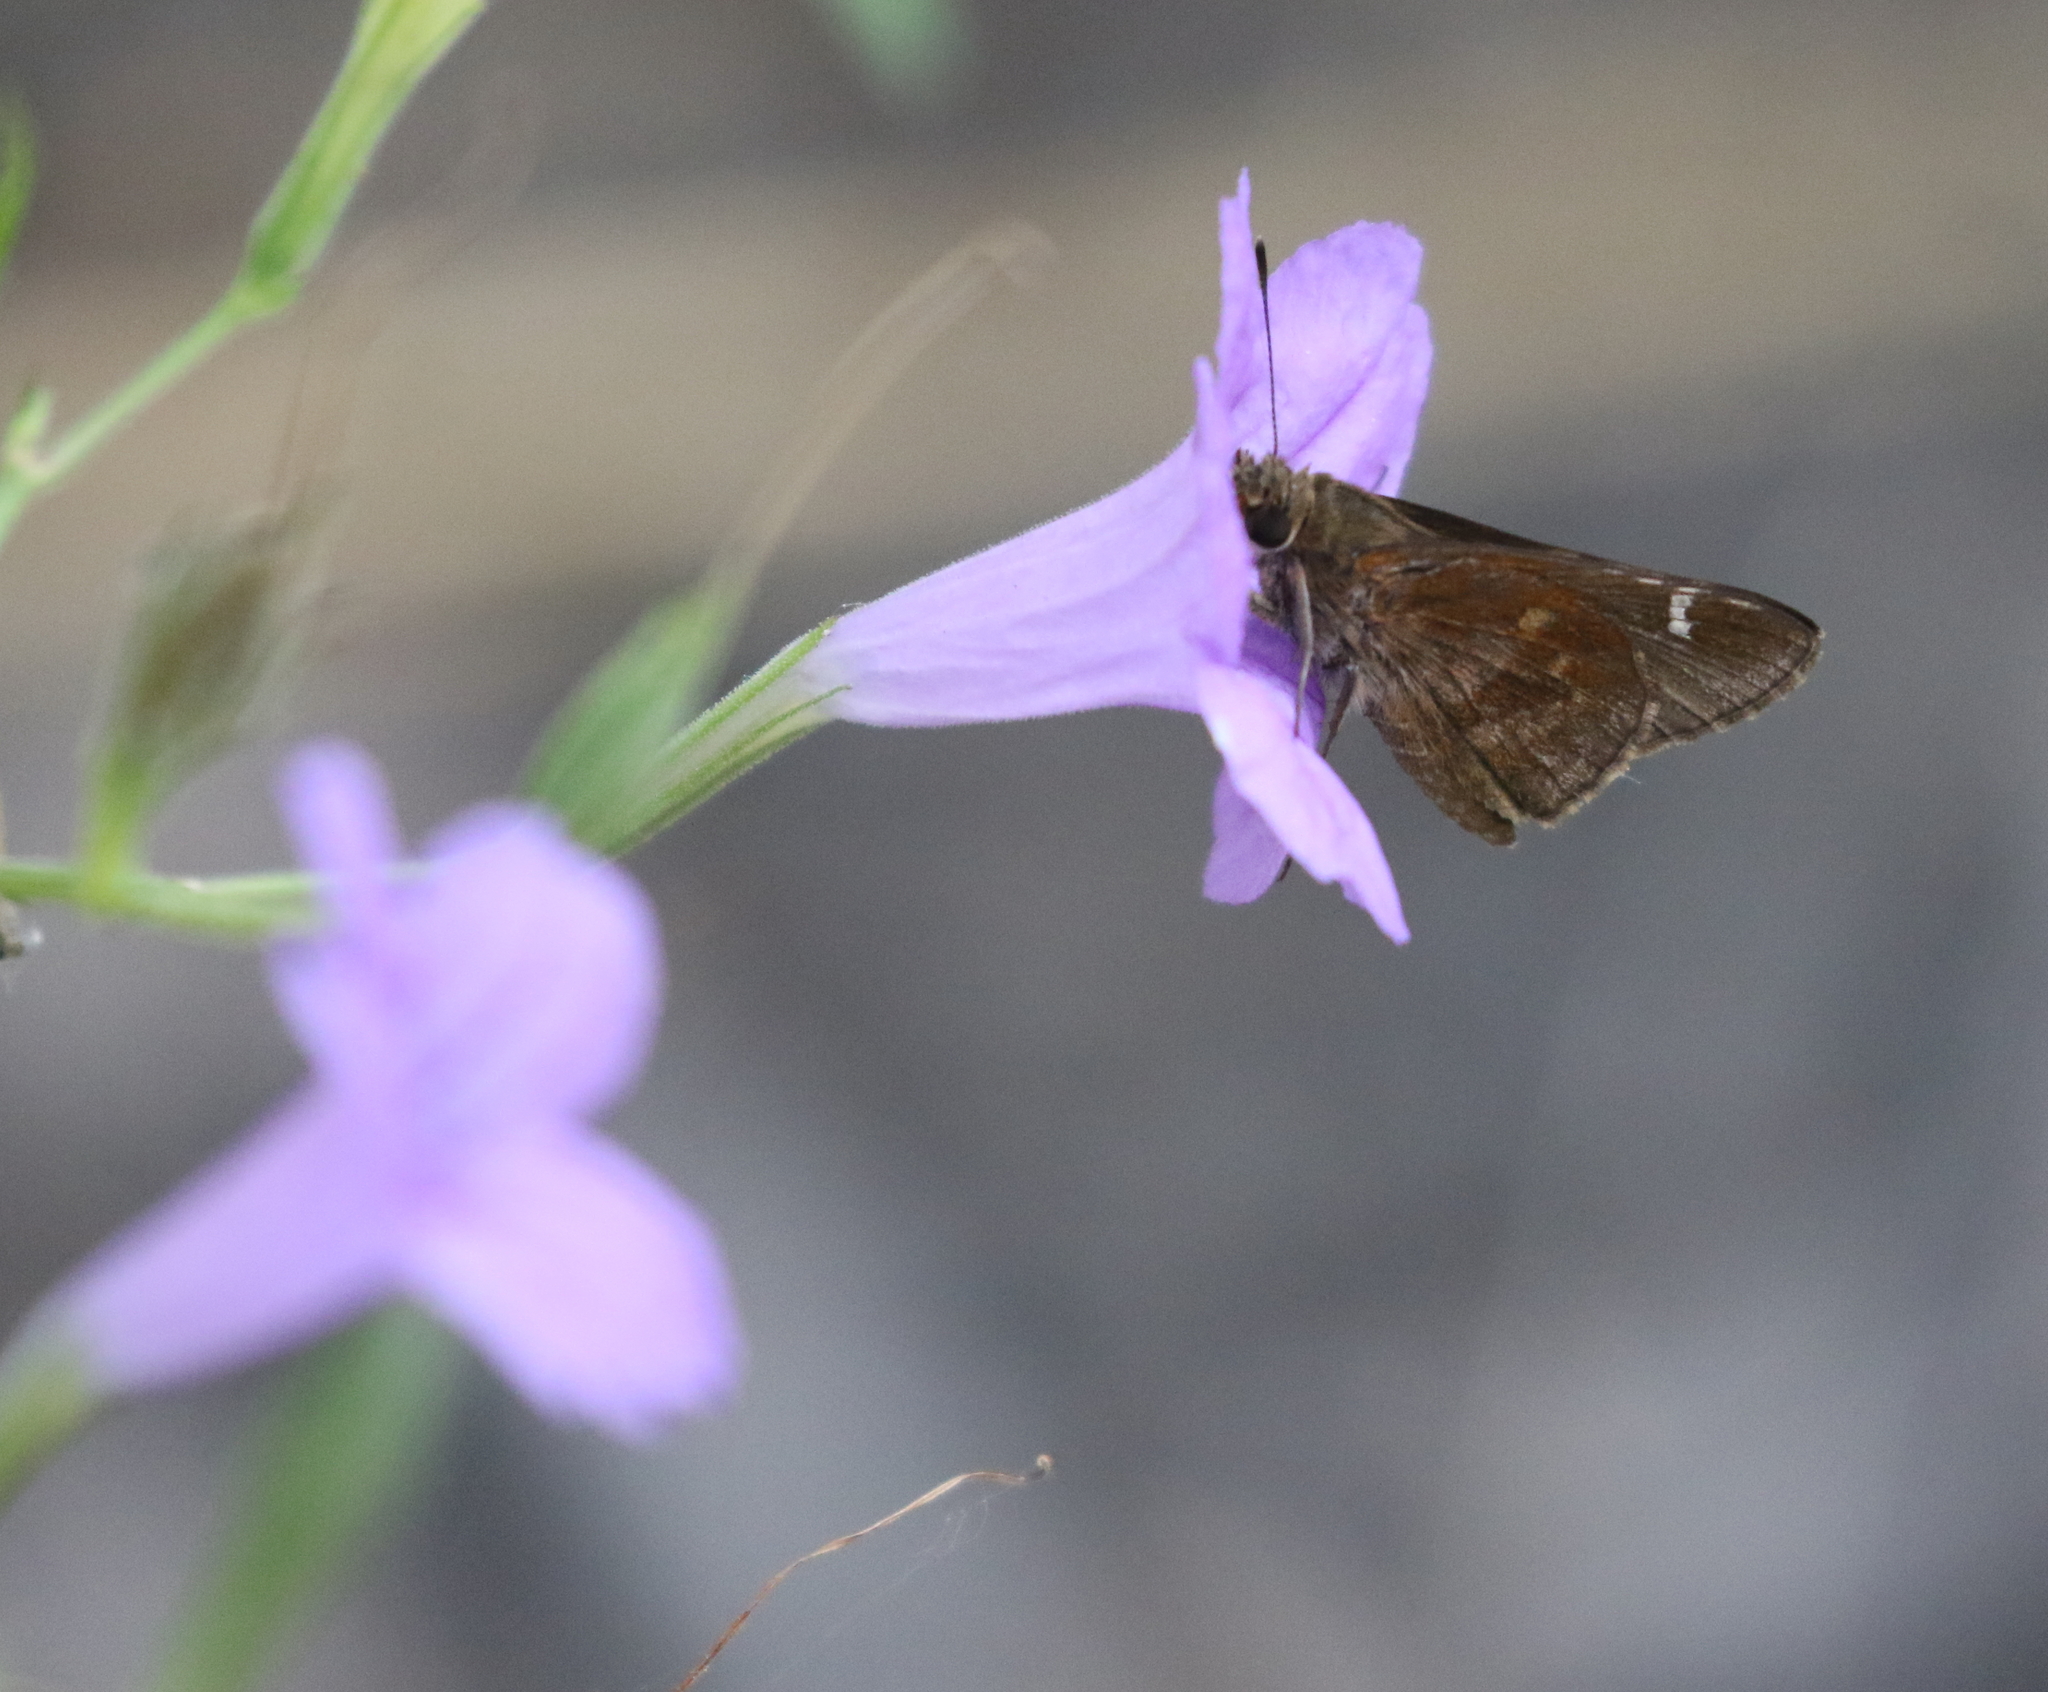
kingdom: Animalia
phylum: Arthropoda
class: Insecta
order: Lepidoptera
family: Hesperiidae
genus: Lerema
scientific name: Lerema accius
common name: Clouded skipper
